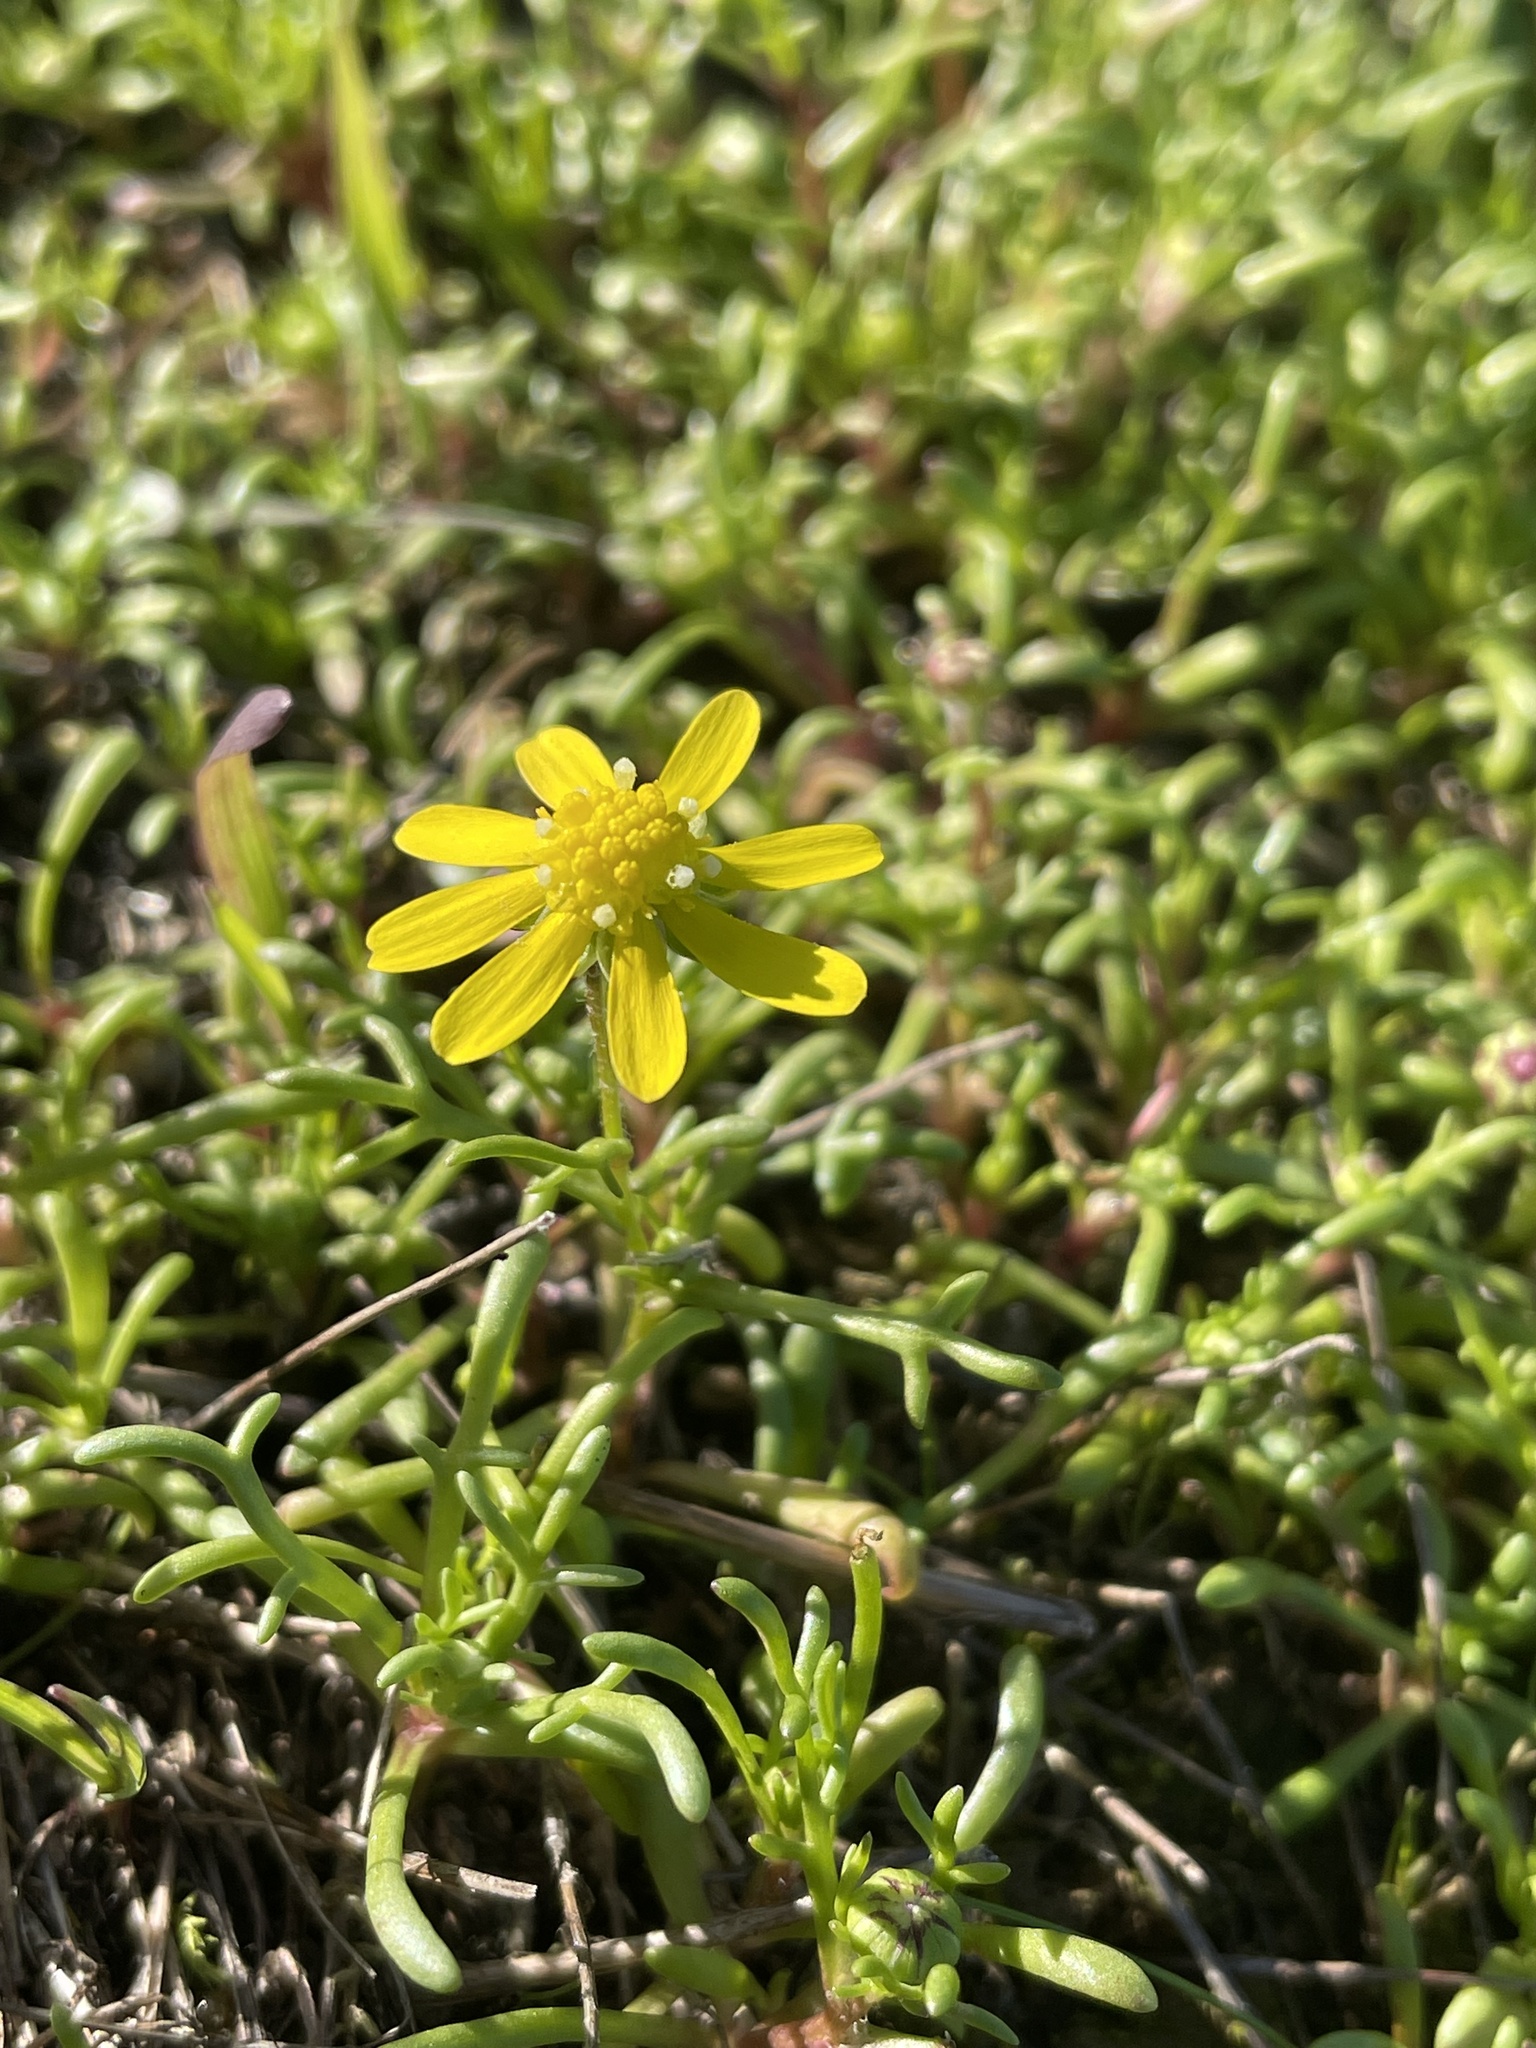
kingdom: Plantae
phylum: Tracheophyta
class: Magnoliopsida
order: Asterales
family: Asteraceae
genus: Blennosperma
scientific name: Blennosperma nanum
